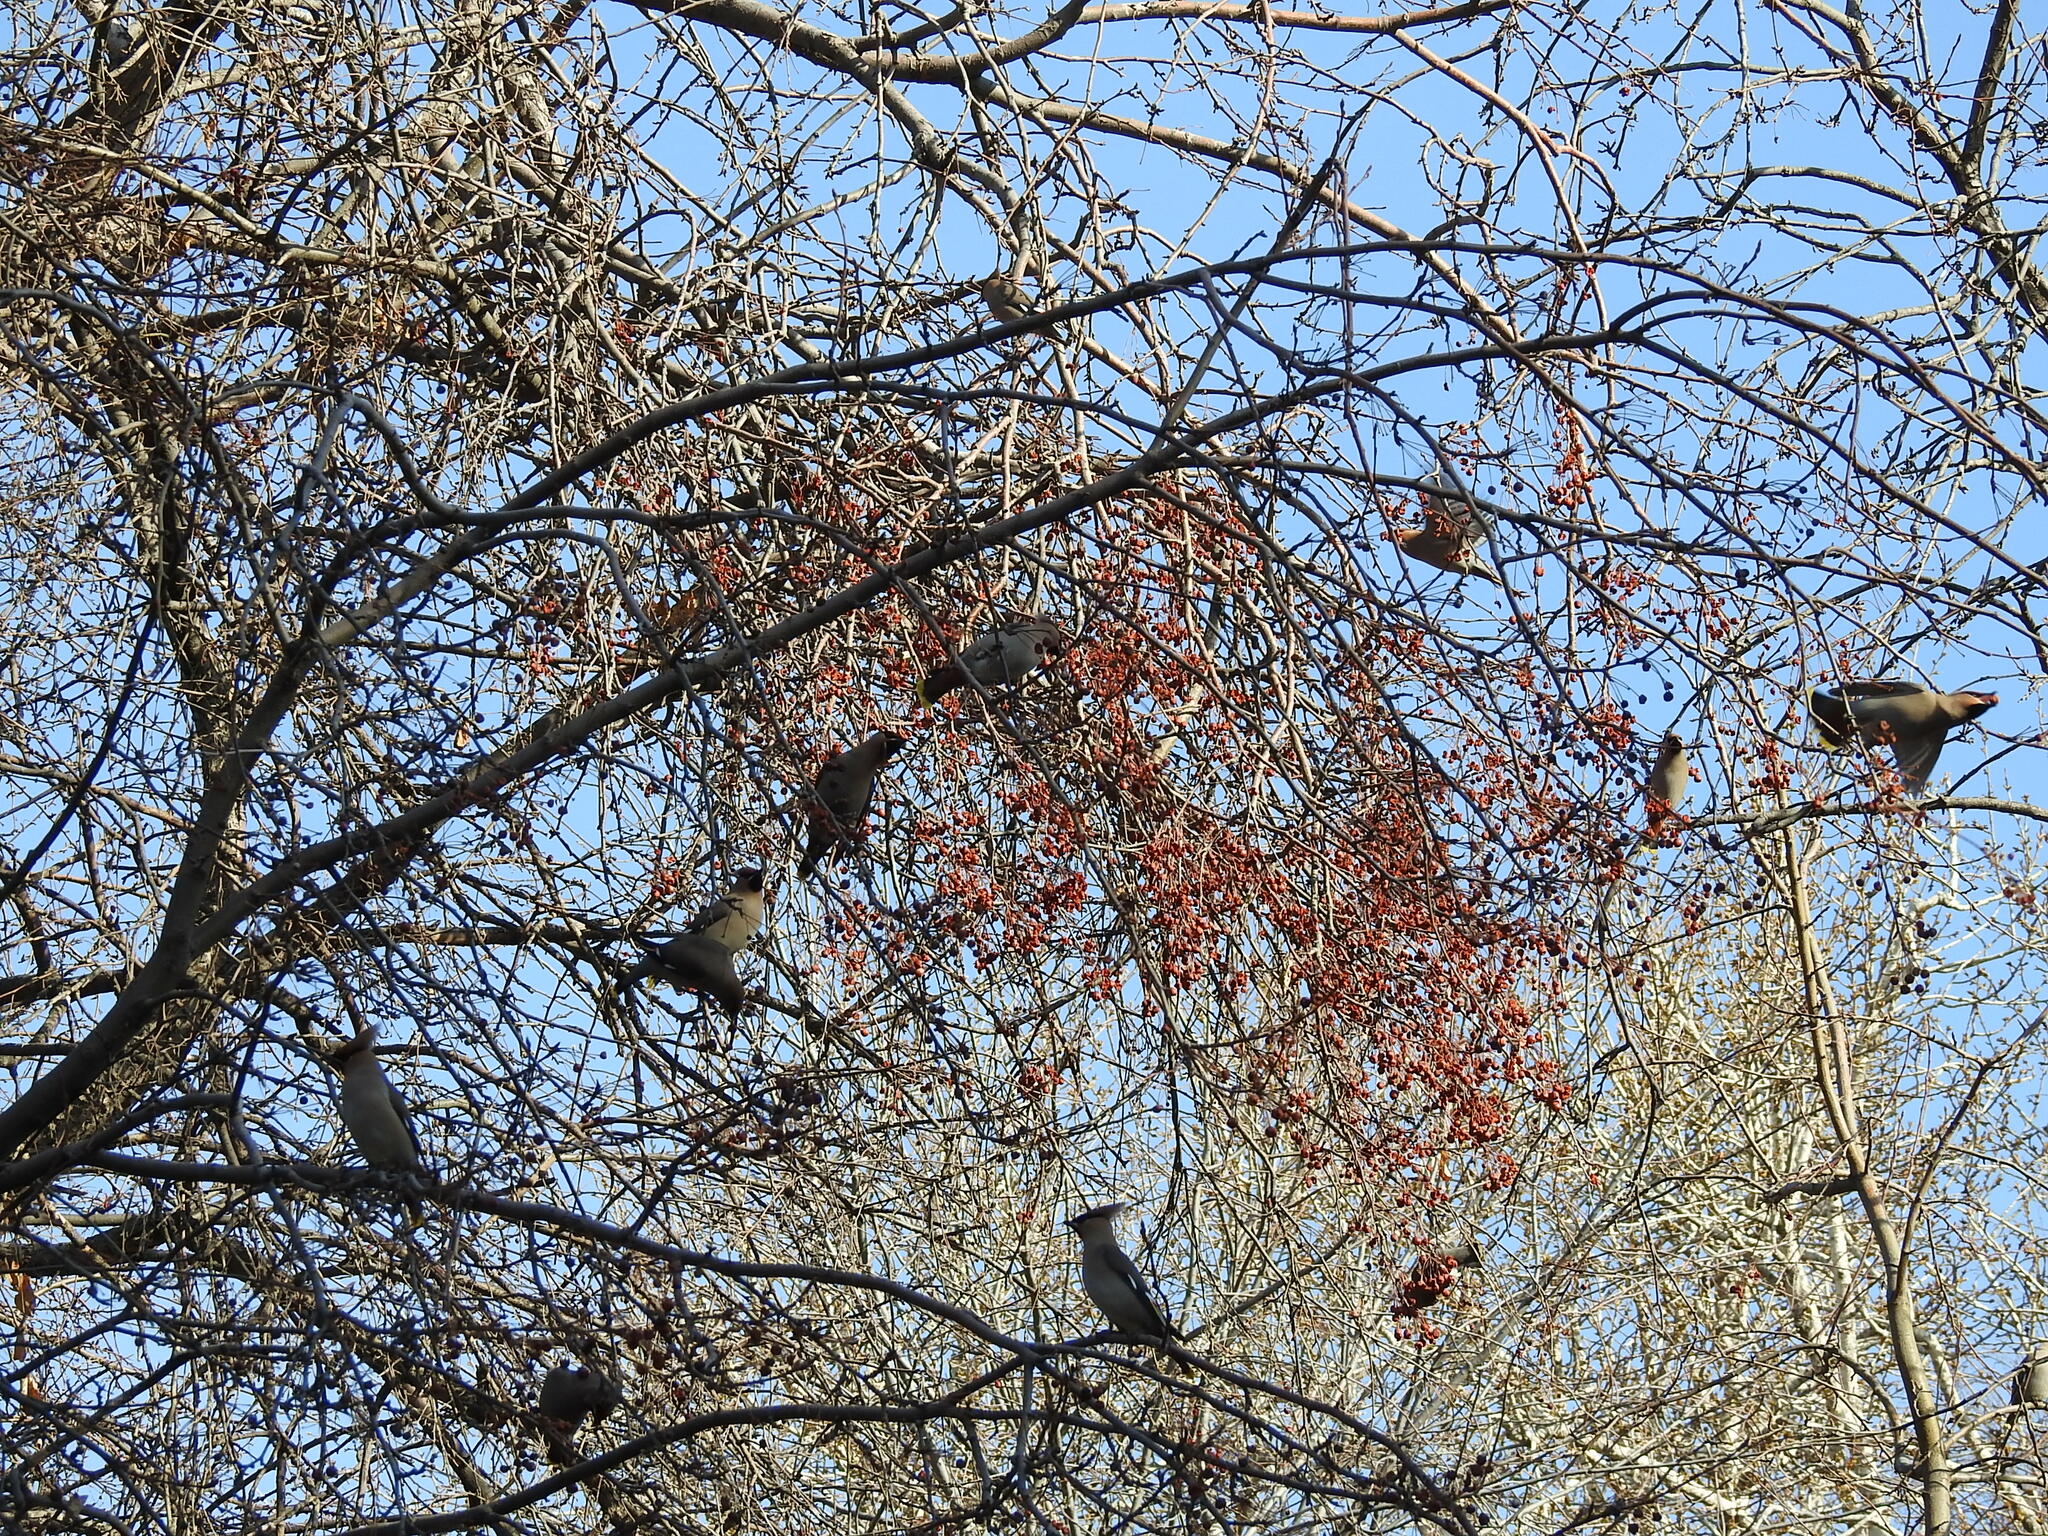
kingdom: Animalia
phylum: Chordata
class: Aves
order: Passeriformes
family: Bombycillidae
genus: Bombycilla
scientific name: Bombycilla garrulus
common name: Bohemian waxwing
